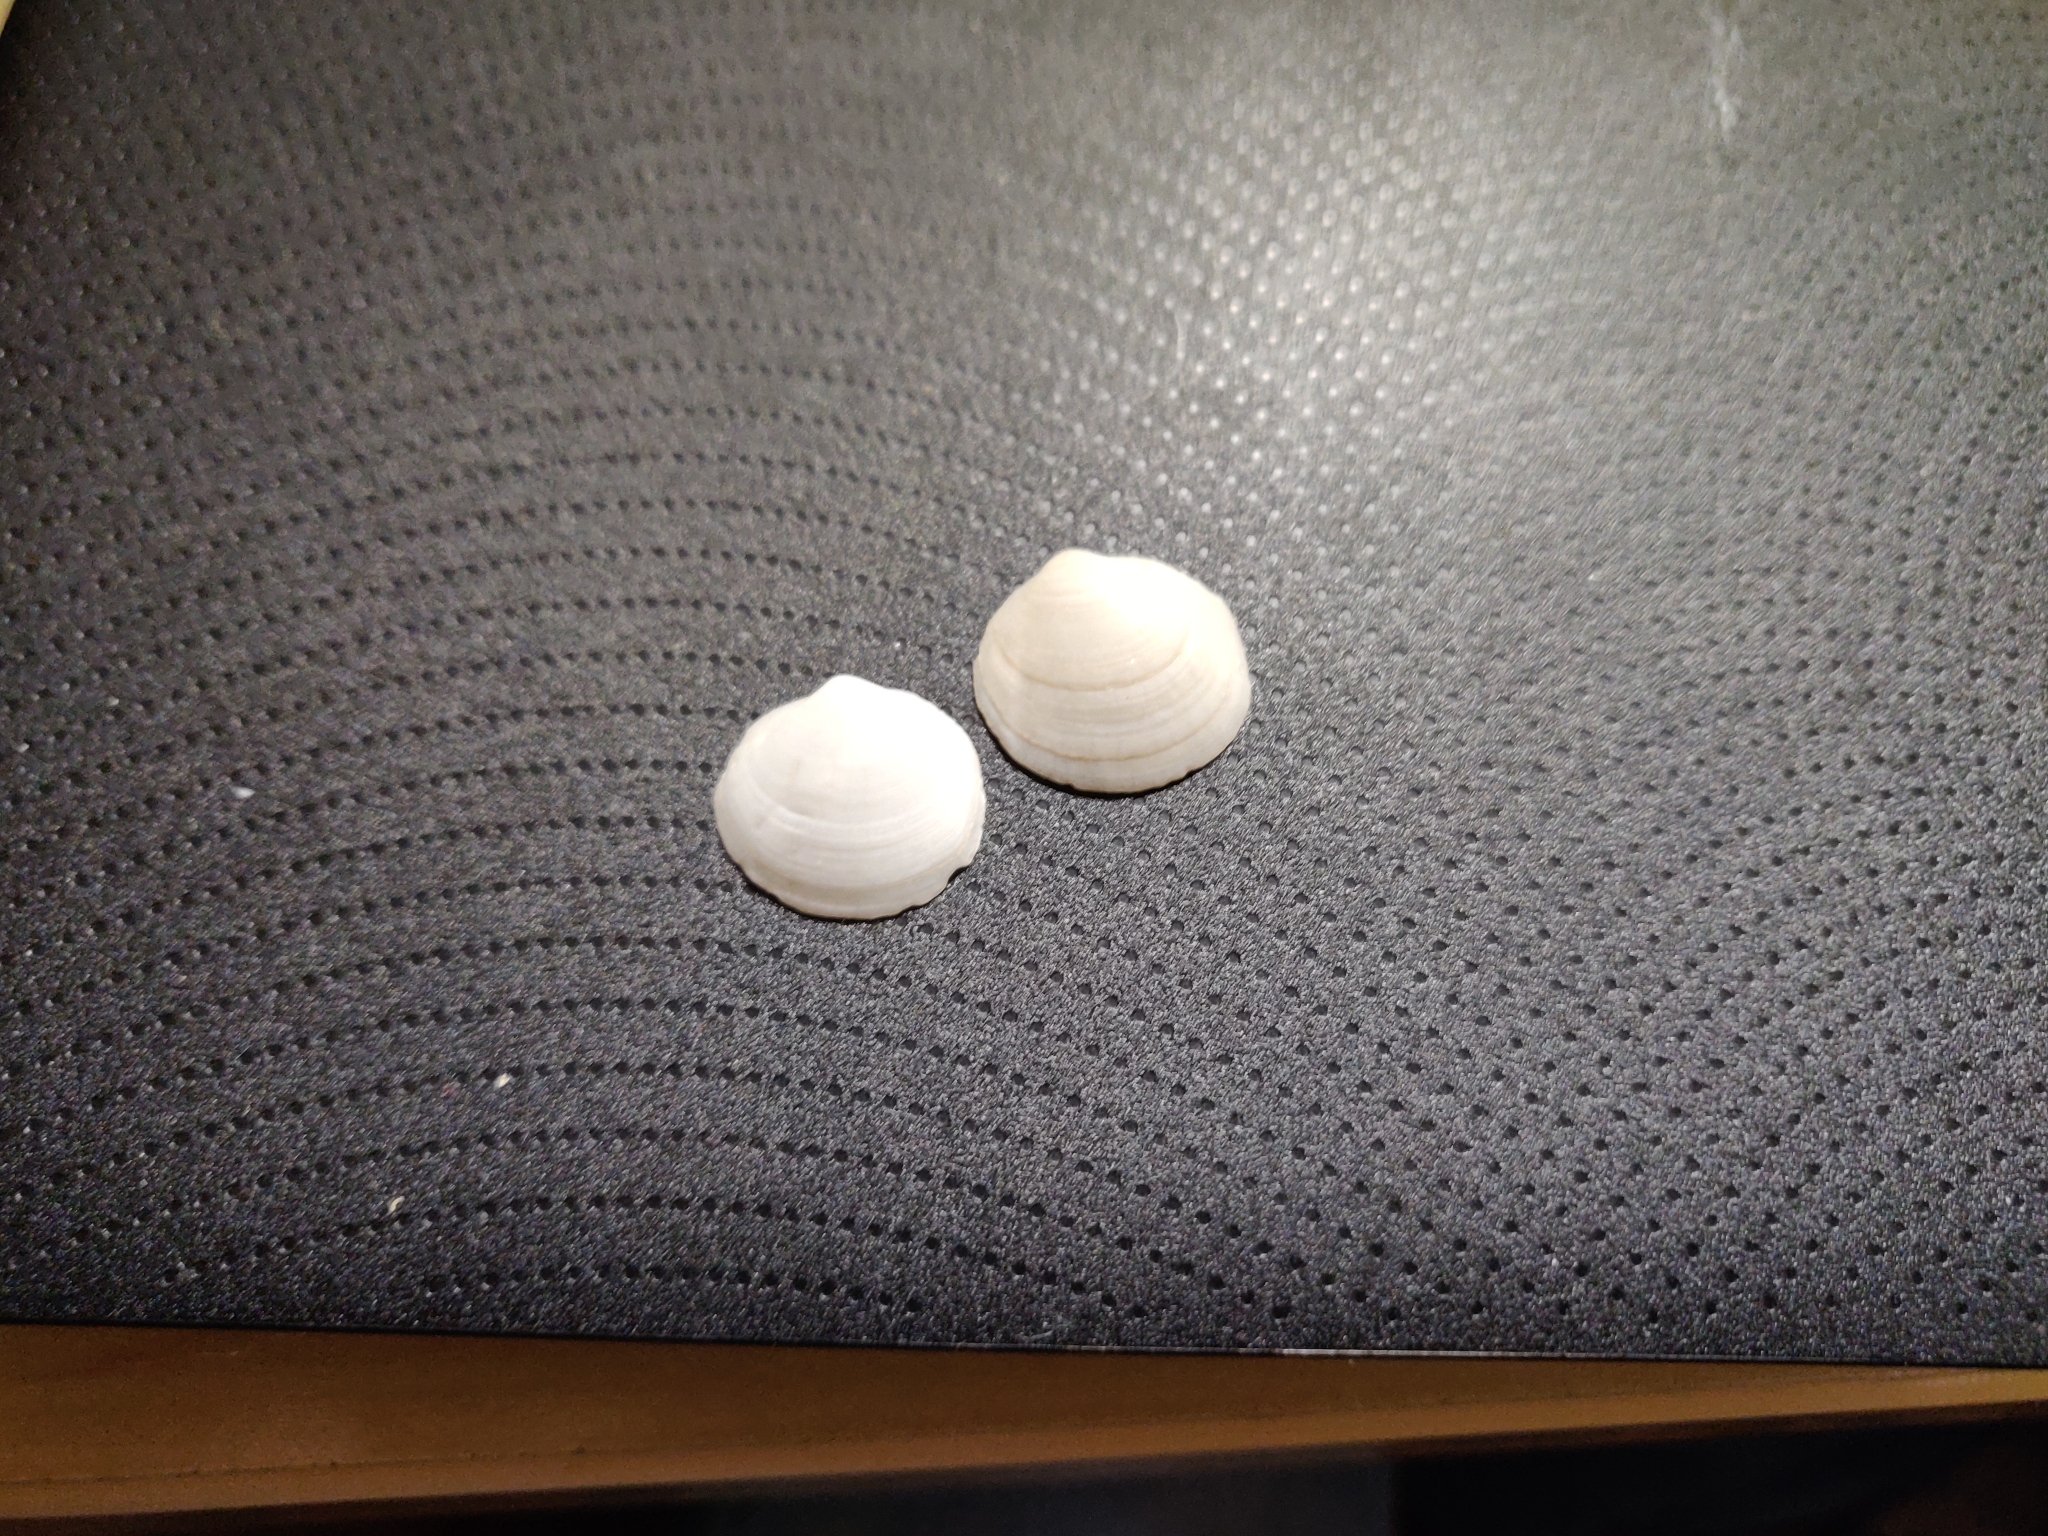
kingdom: Animalia
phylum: Mollusca
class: Bivalvia
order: Lucinida
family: Lucinidae
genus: Loripes
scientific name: Loripes orbiculatus
